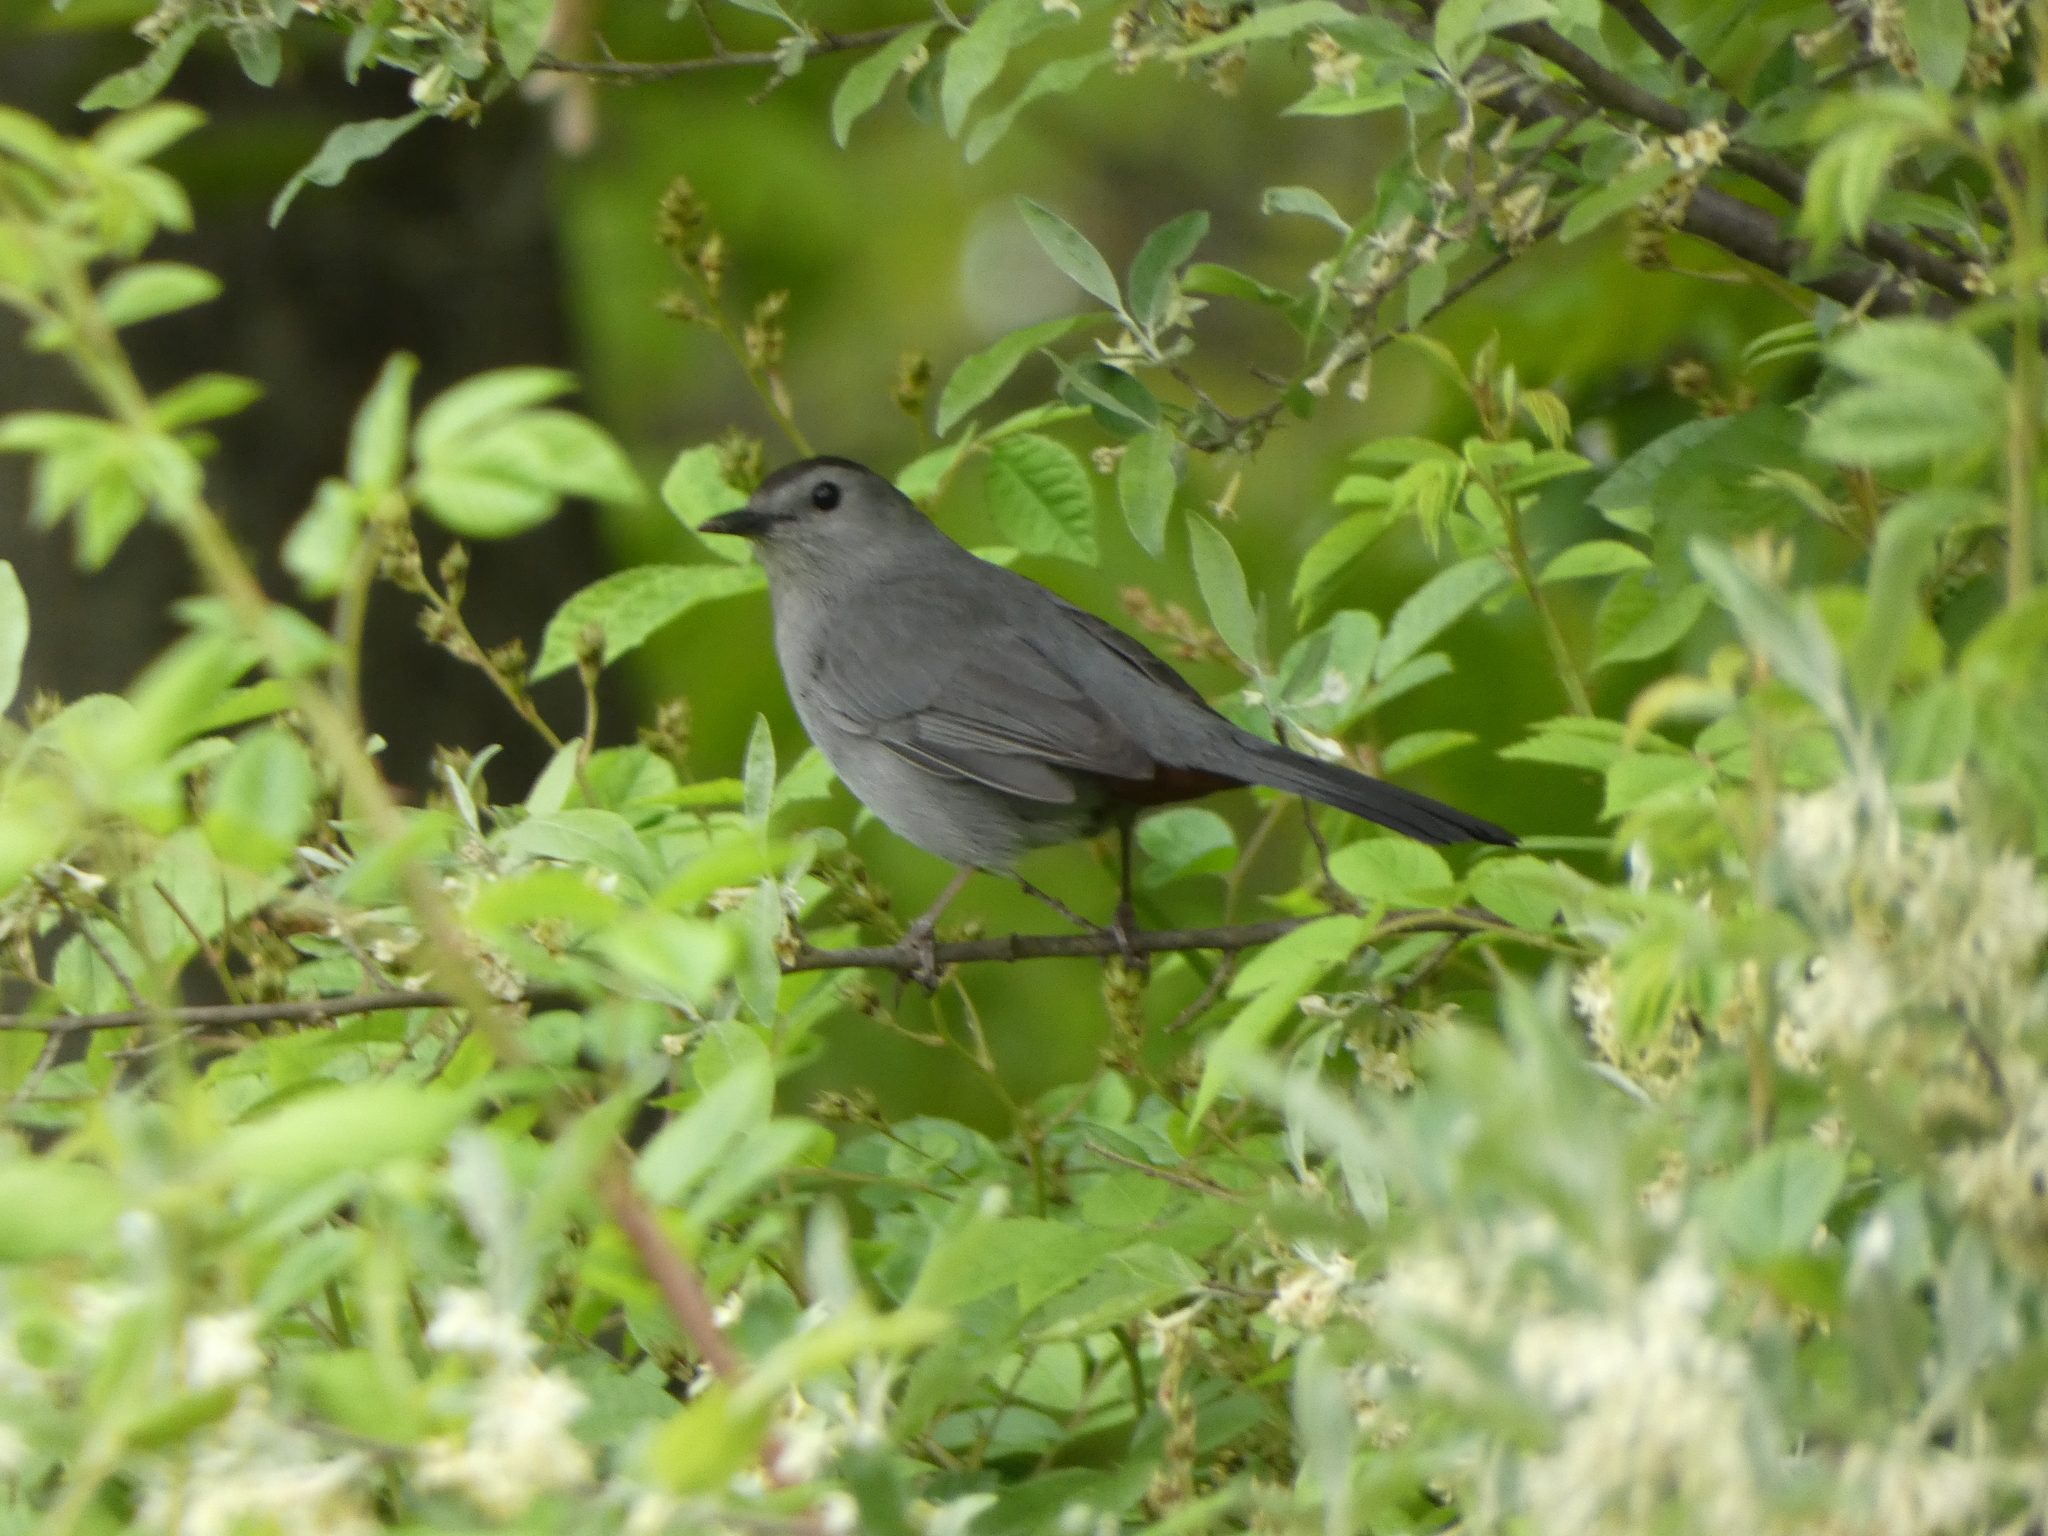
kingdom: Animalia
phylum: Chordata
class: Aves
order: Passeriformes
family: Mimidae
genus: Dumetella
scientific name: Dumetella carolinensis
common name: Gray catbird
